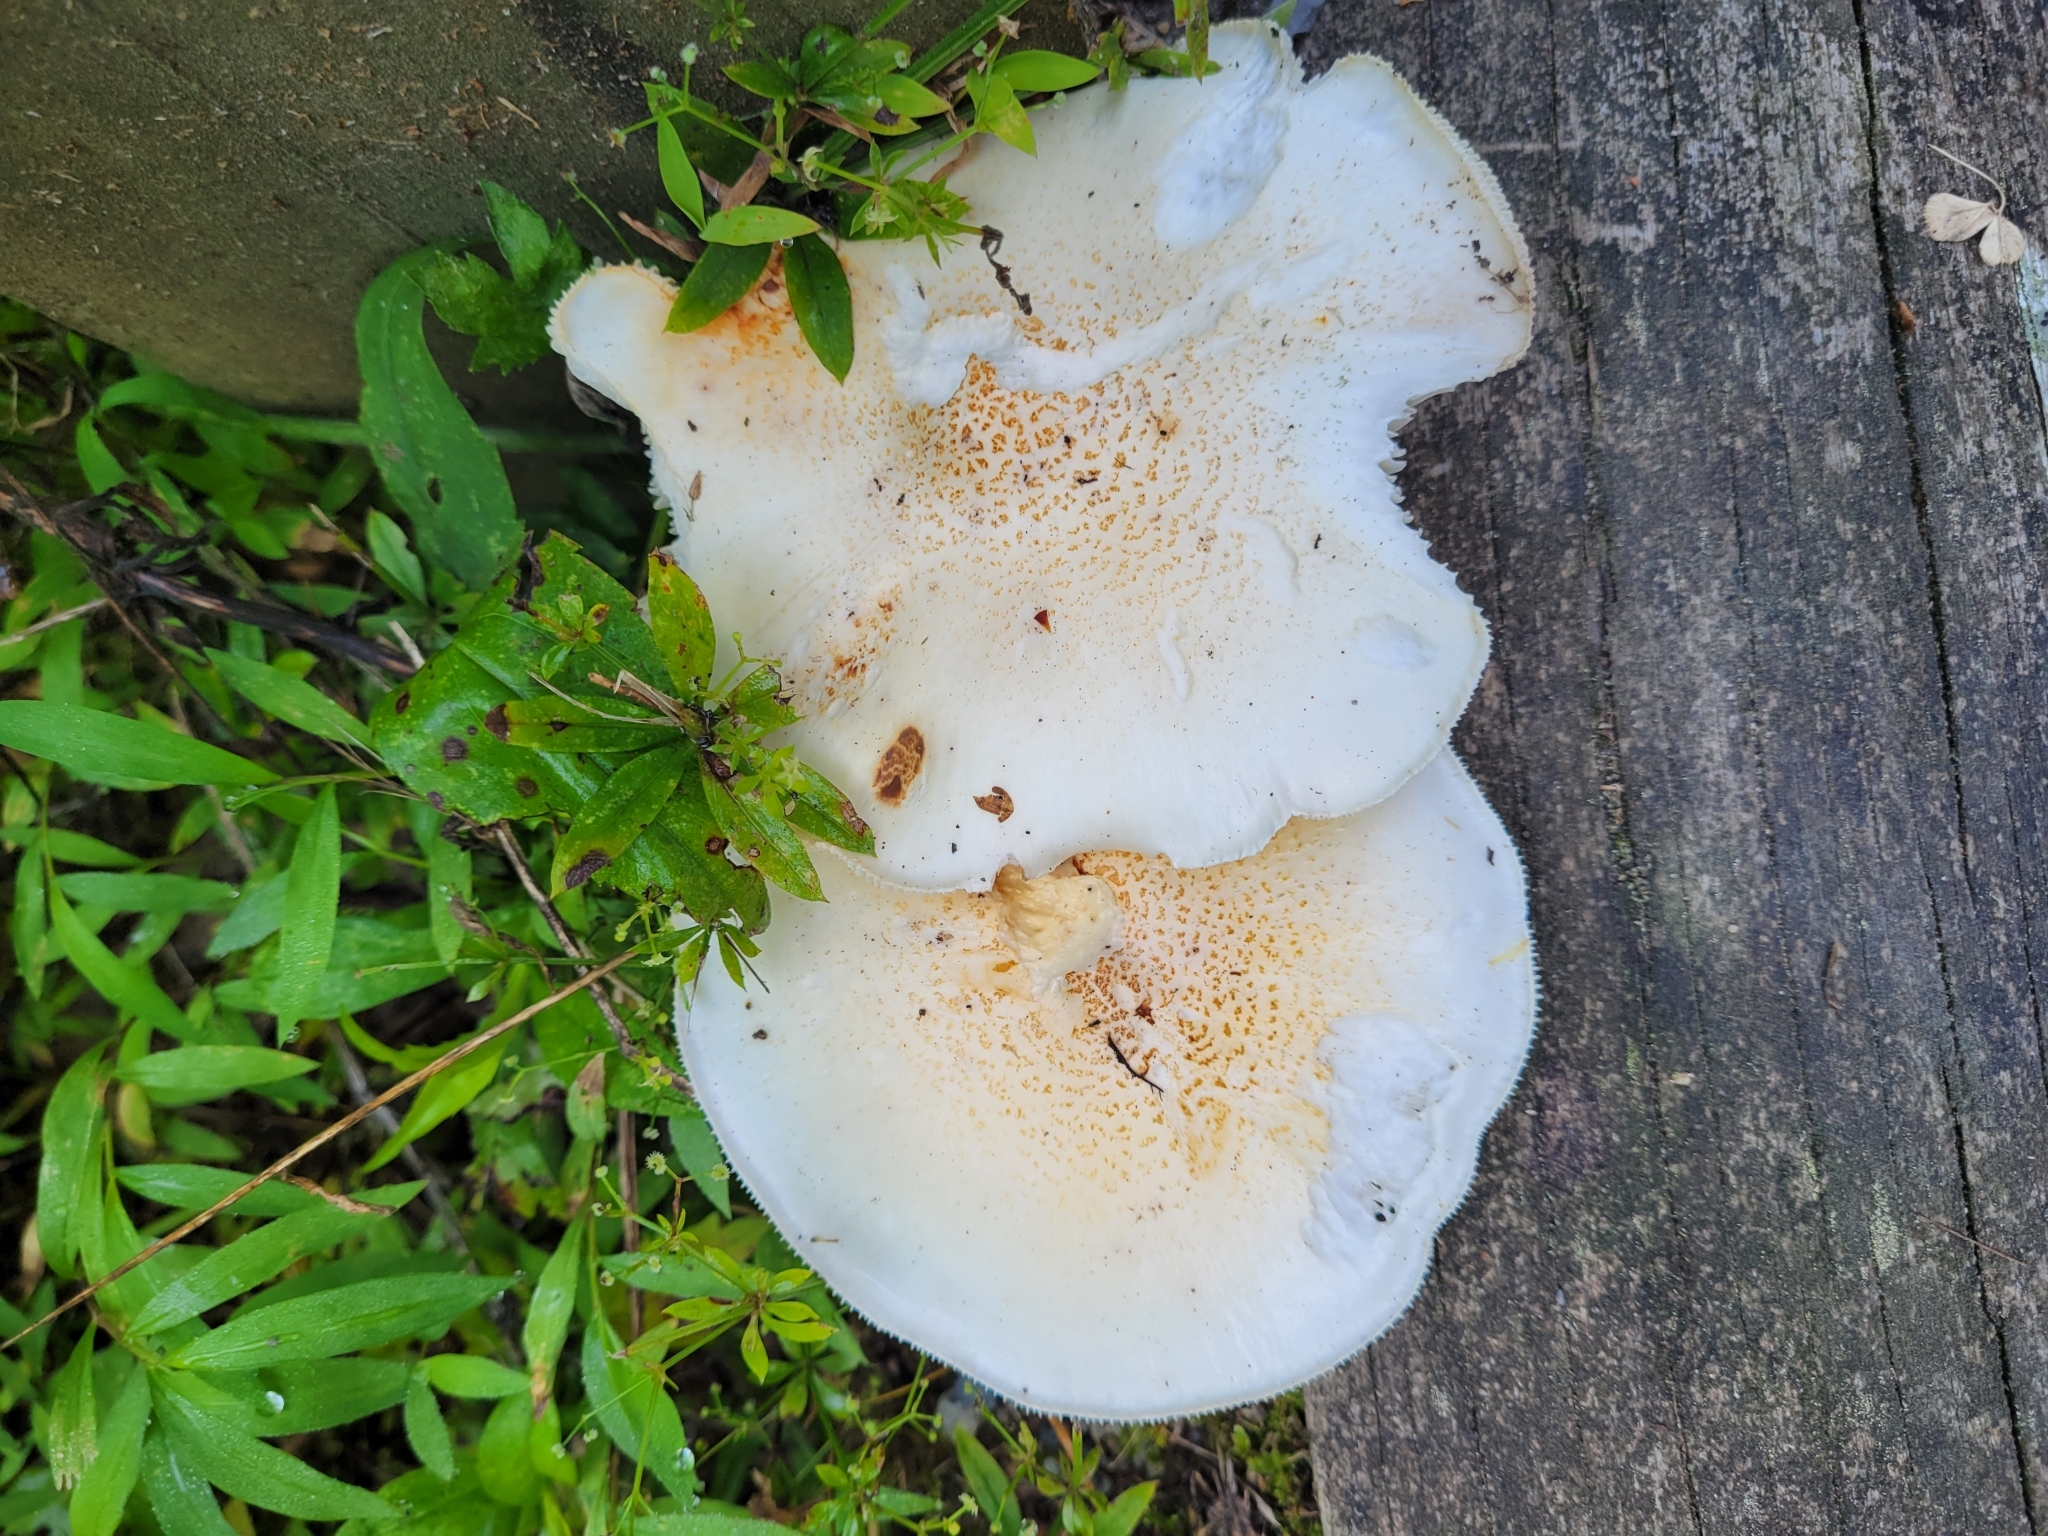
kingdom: Fungi
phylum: Basidiomycota
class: Agaricomycetes
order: Gloeophyllales
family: Gloeophyllaceae
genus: Neolentinus
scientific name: Neolentinus lepideus
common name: Scaly sawgill
